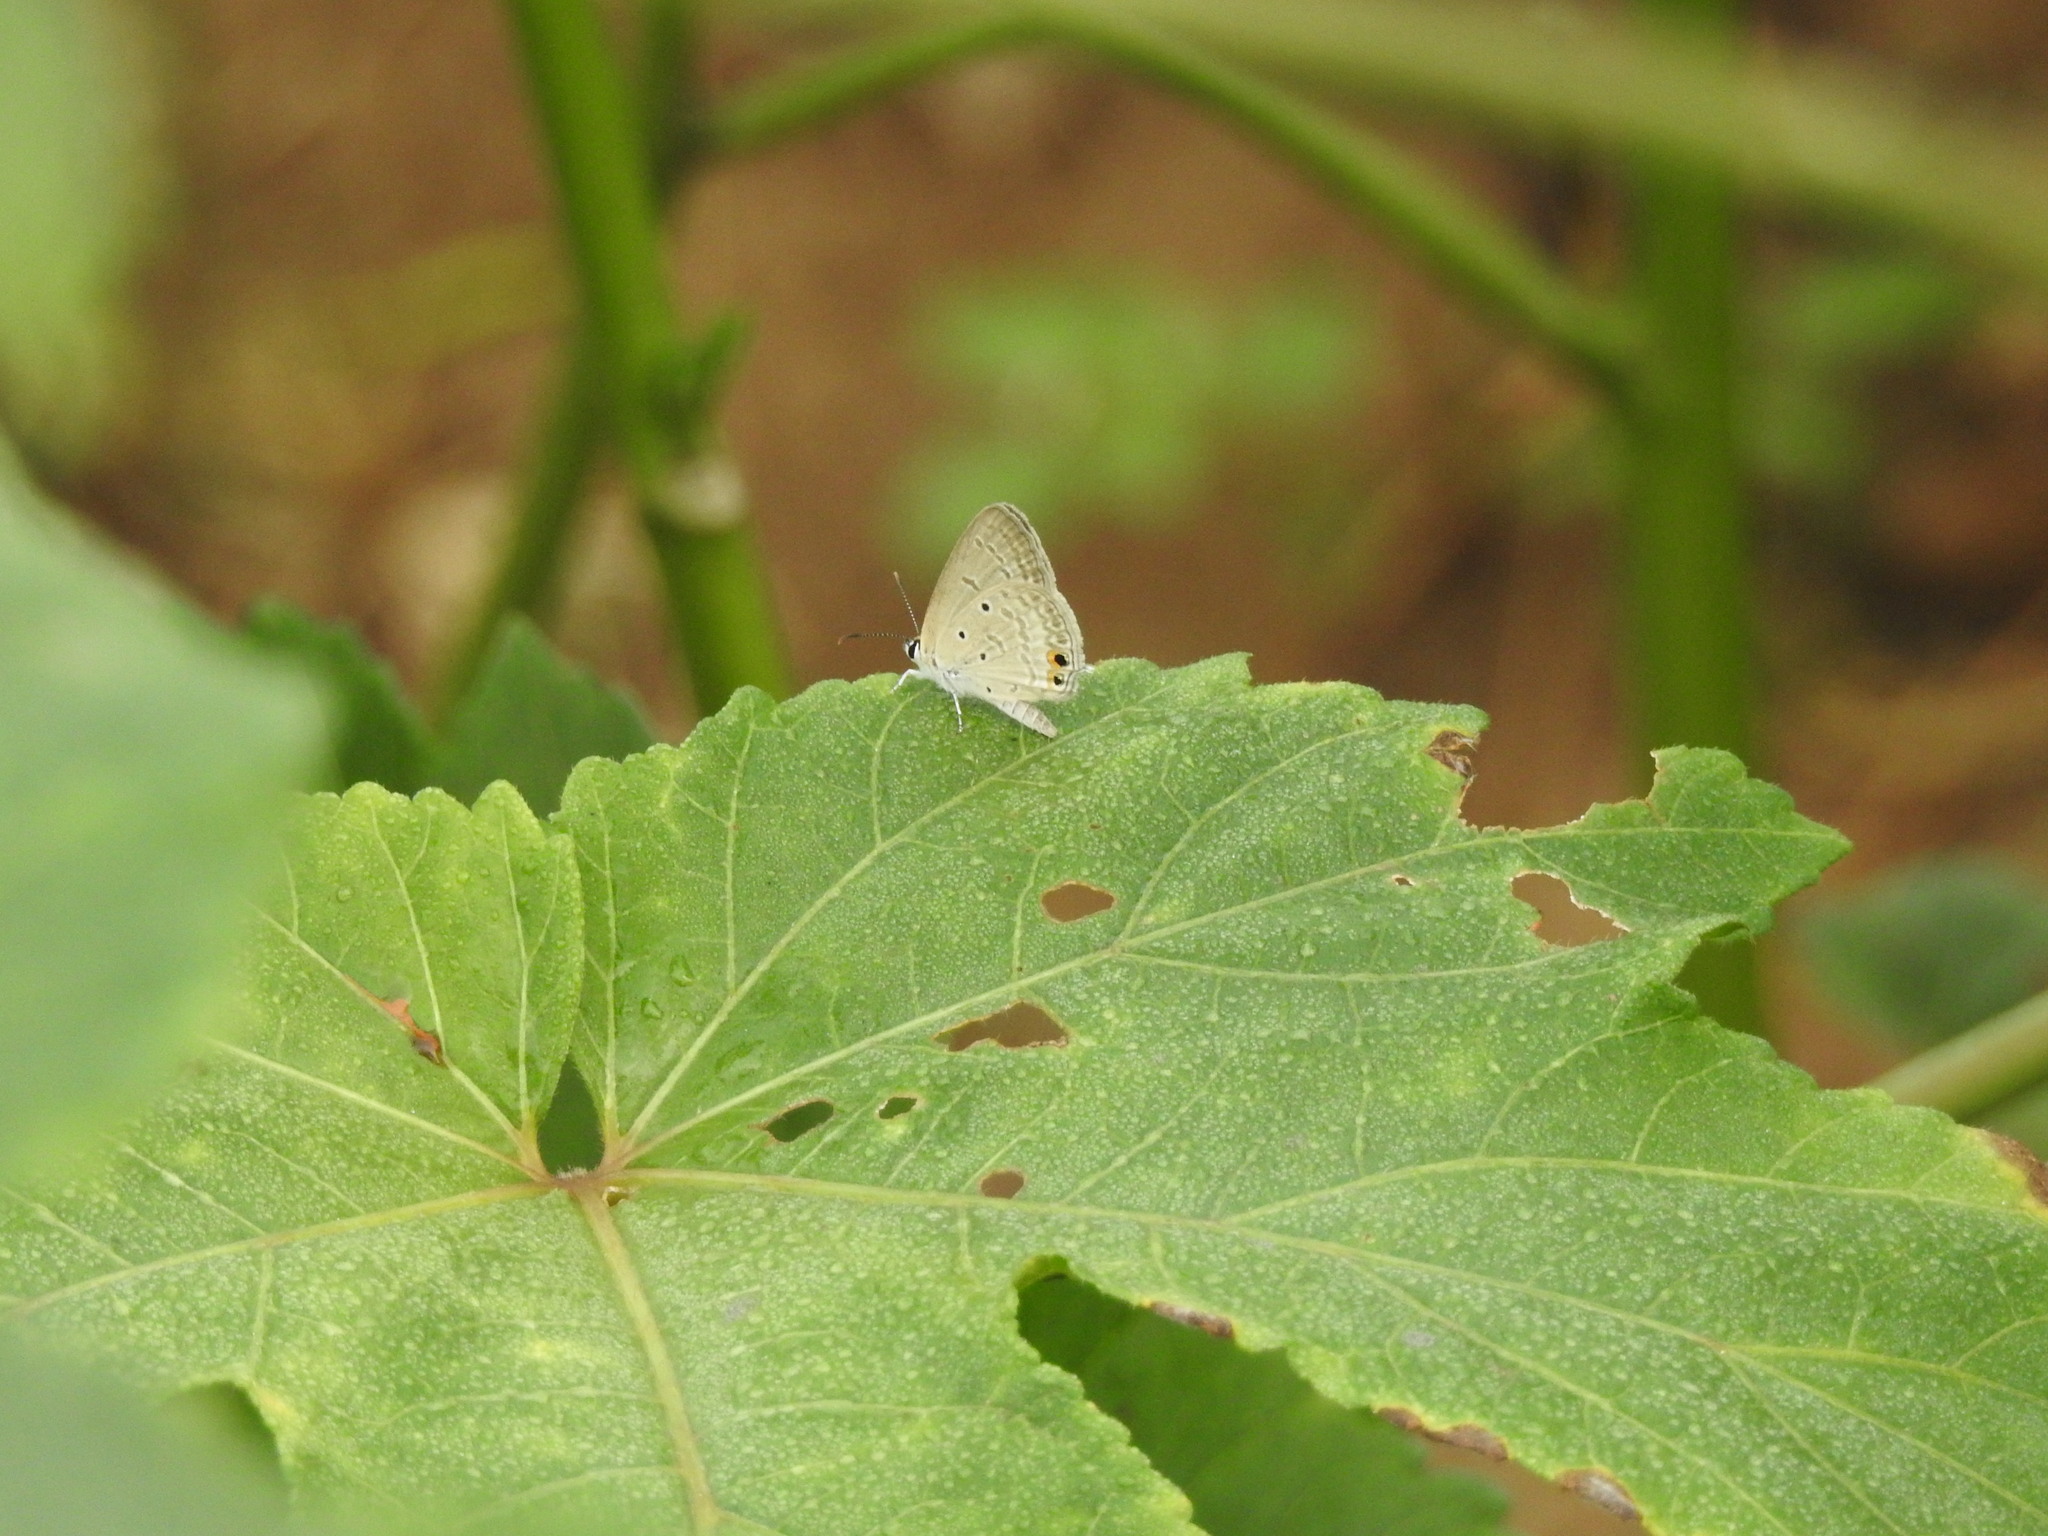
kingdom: Animalia
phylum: Arthropoda
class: Insecta
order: Lepidoptera
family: Lycaenidae
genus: Euchrysops
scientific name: Euchrysops cnejus
